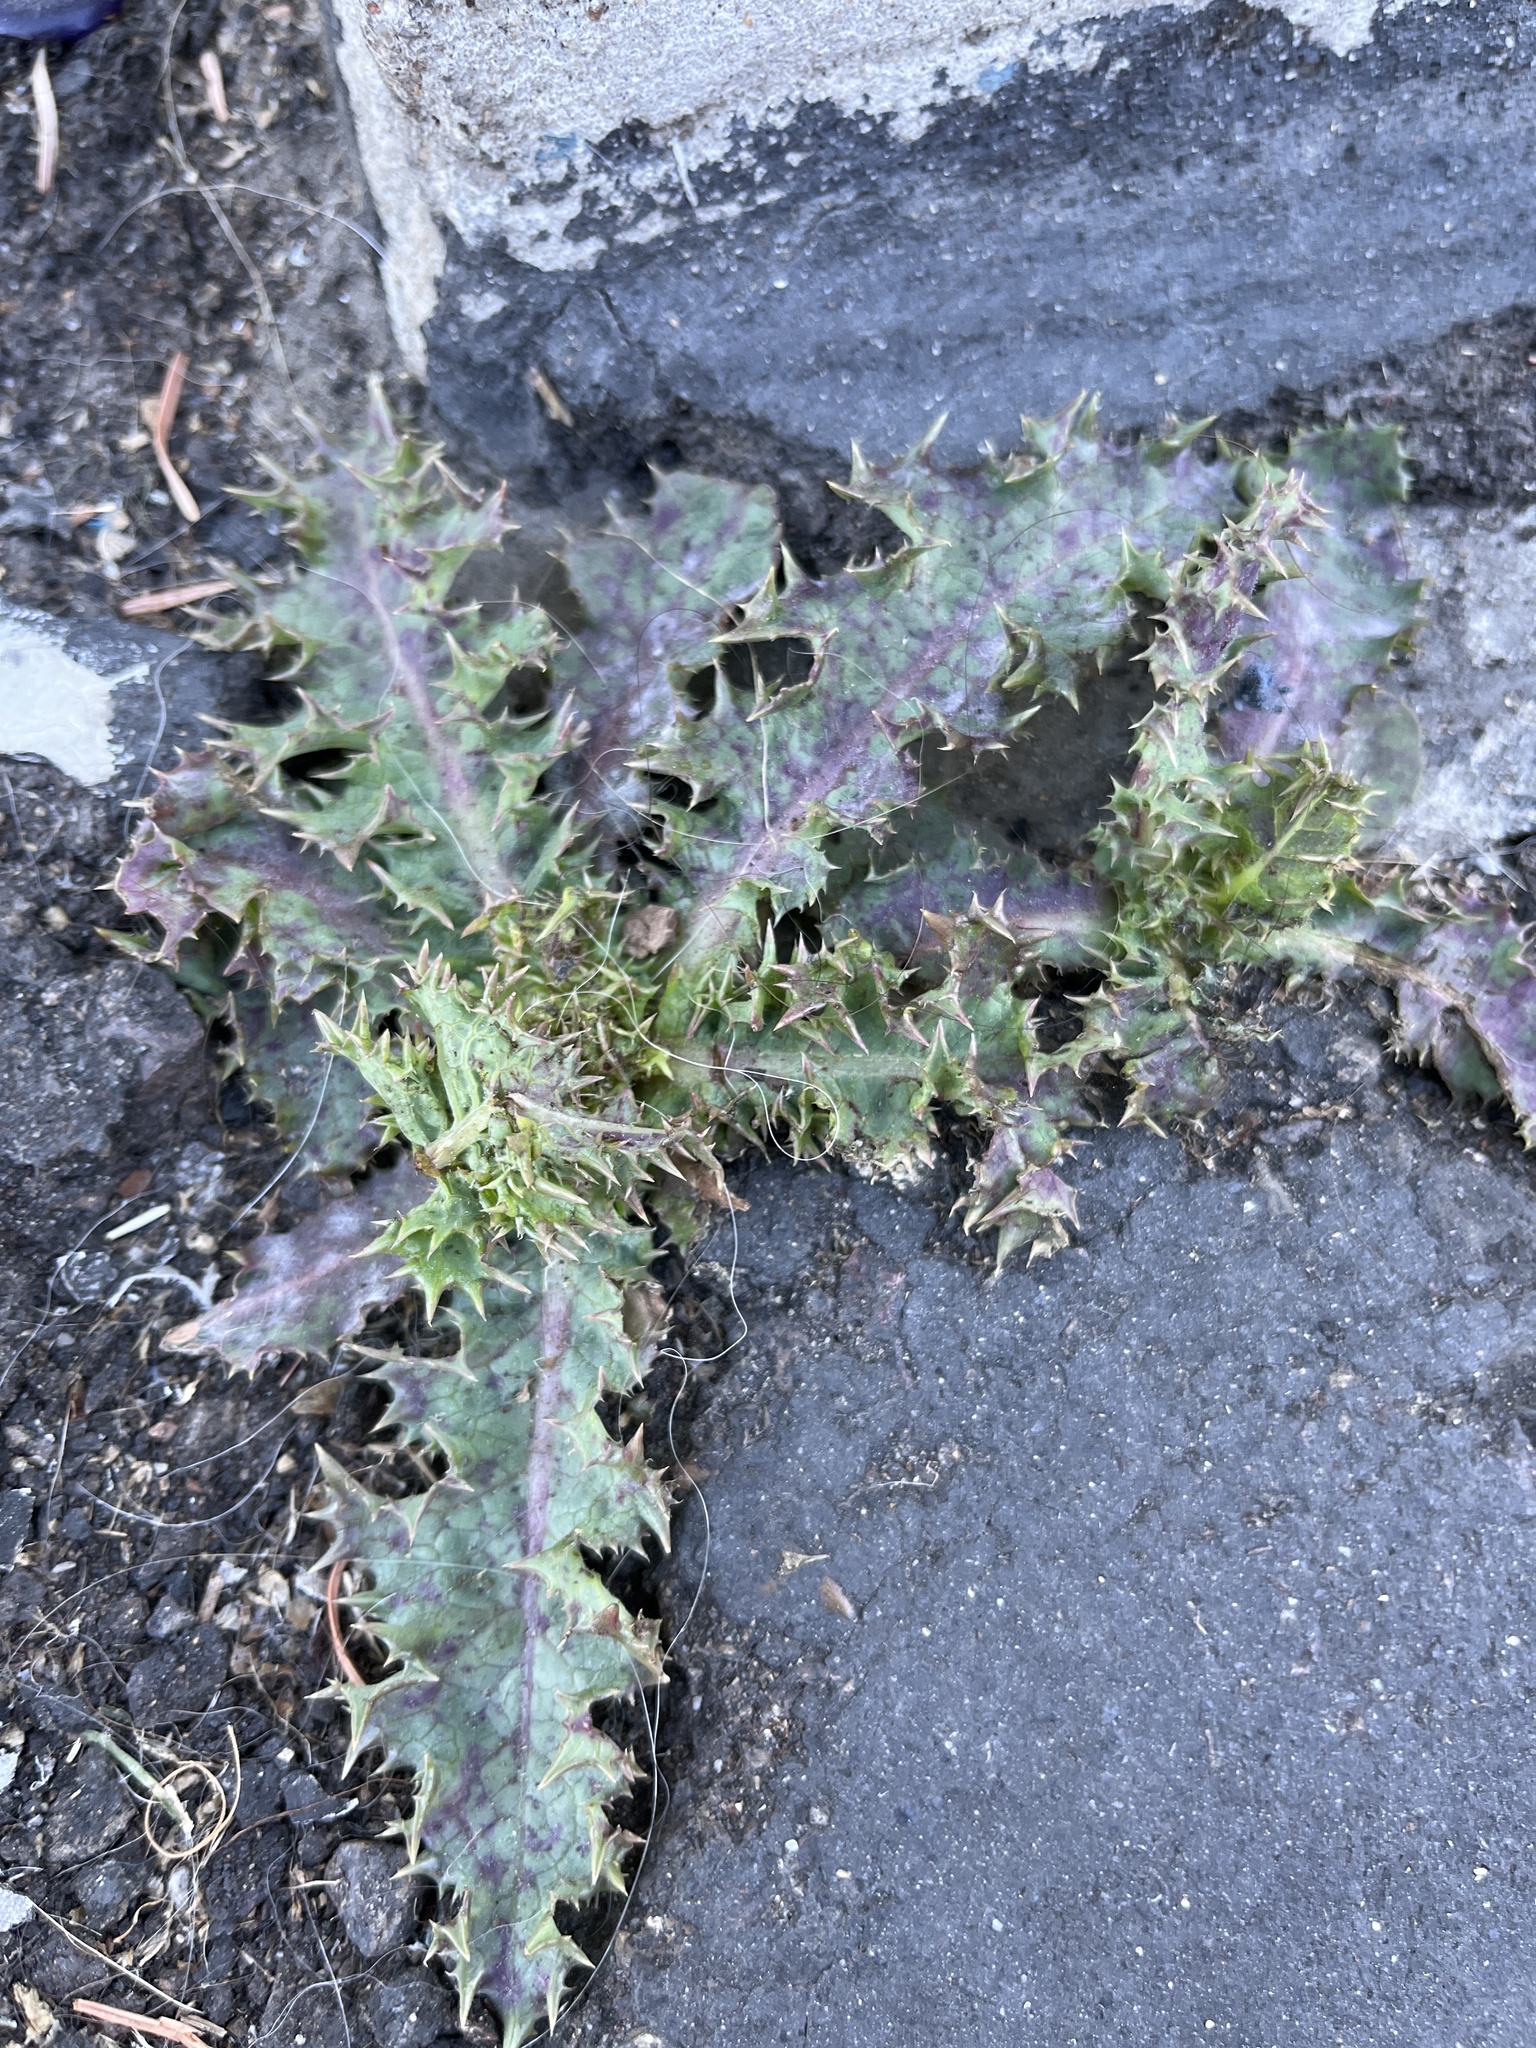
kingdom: Plantae
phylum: Tracheophyta
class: Magnoliopsida
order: Asterales
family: Asteraceae
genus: Sonchus
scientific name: Sonchus asper
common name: Prickly sow-thistle
